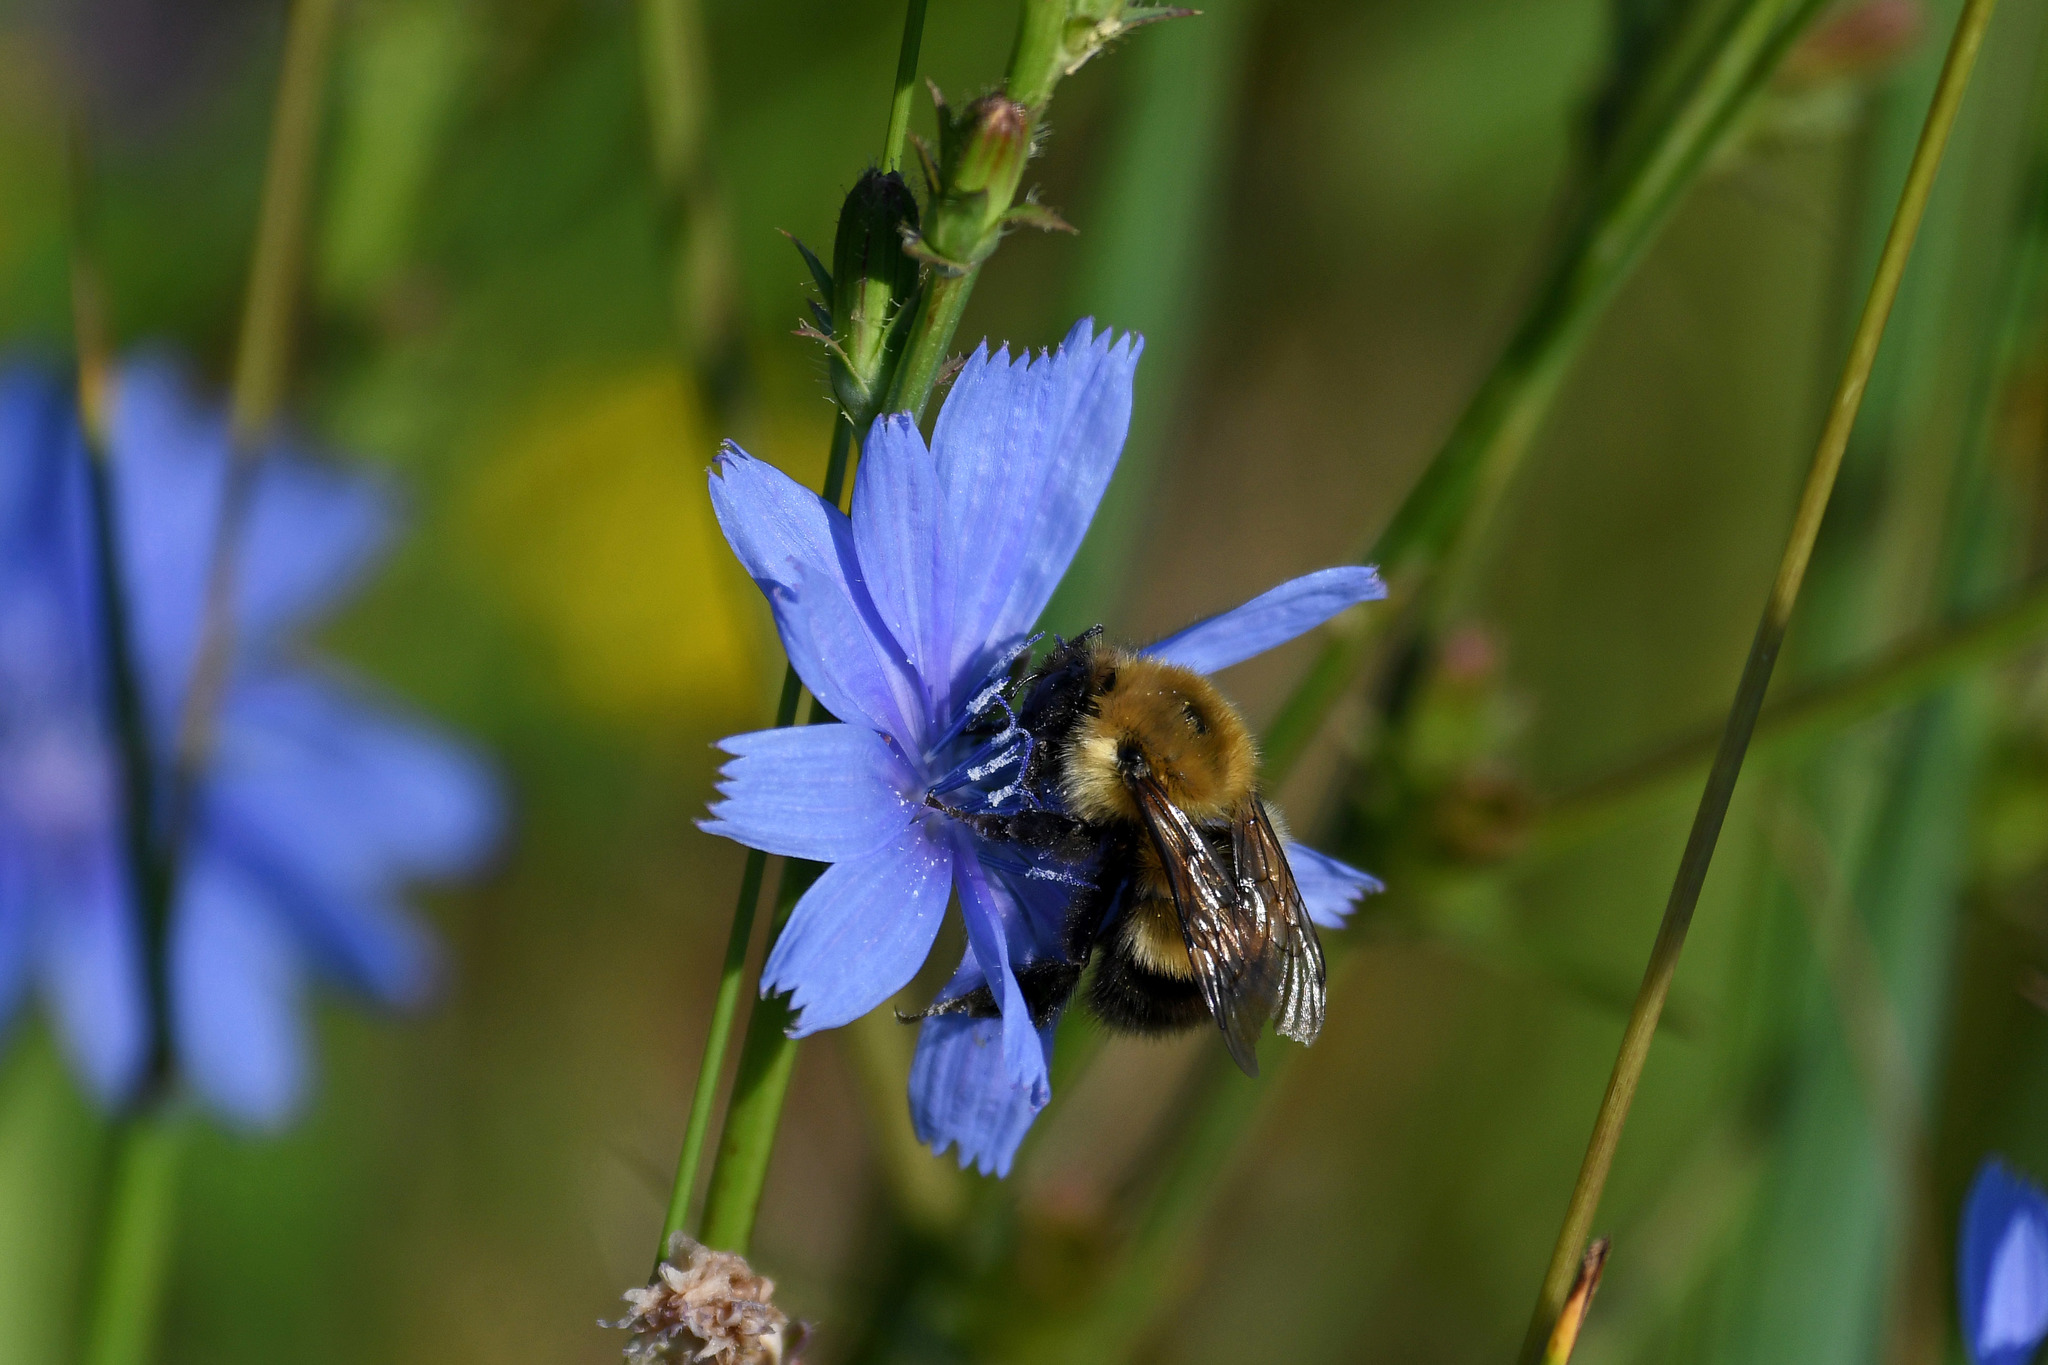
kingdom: Animalia
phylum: Arthropoda
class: Insecta
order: Hymenoptera
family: Apidae
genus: Bombus
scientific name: Bombus perplexus
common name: Confusing bumble bee
